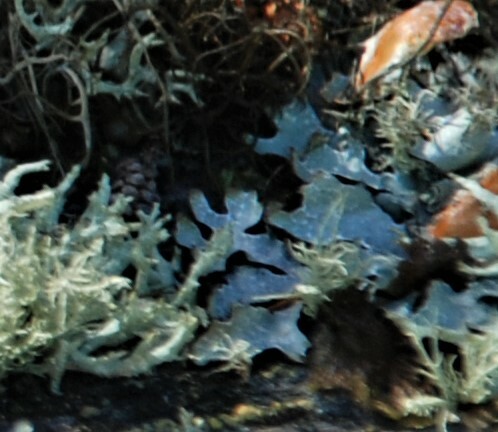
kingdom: Fungi
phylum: Ascomycota
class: Lecanoromycetes
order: Lecanorales
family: Parmeliaceae
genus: Parmelia
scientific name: Parmelia sulcata
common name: Netted shield lichen
